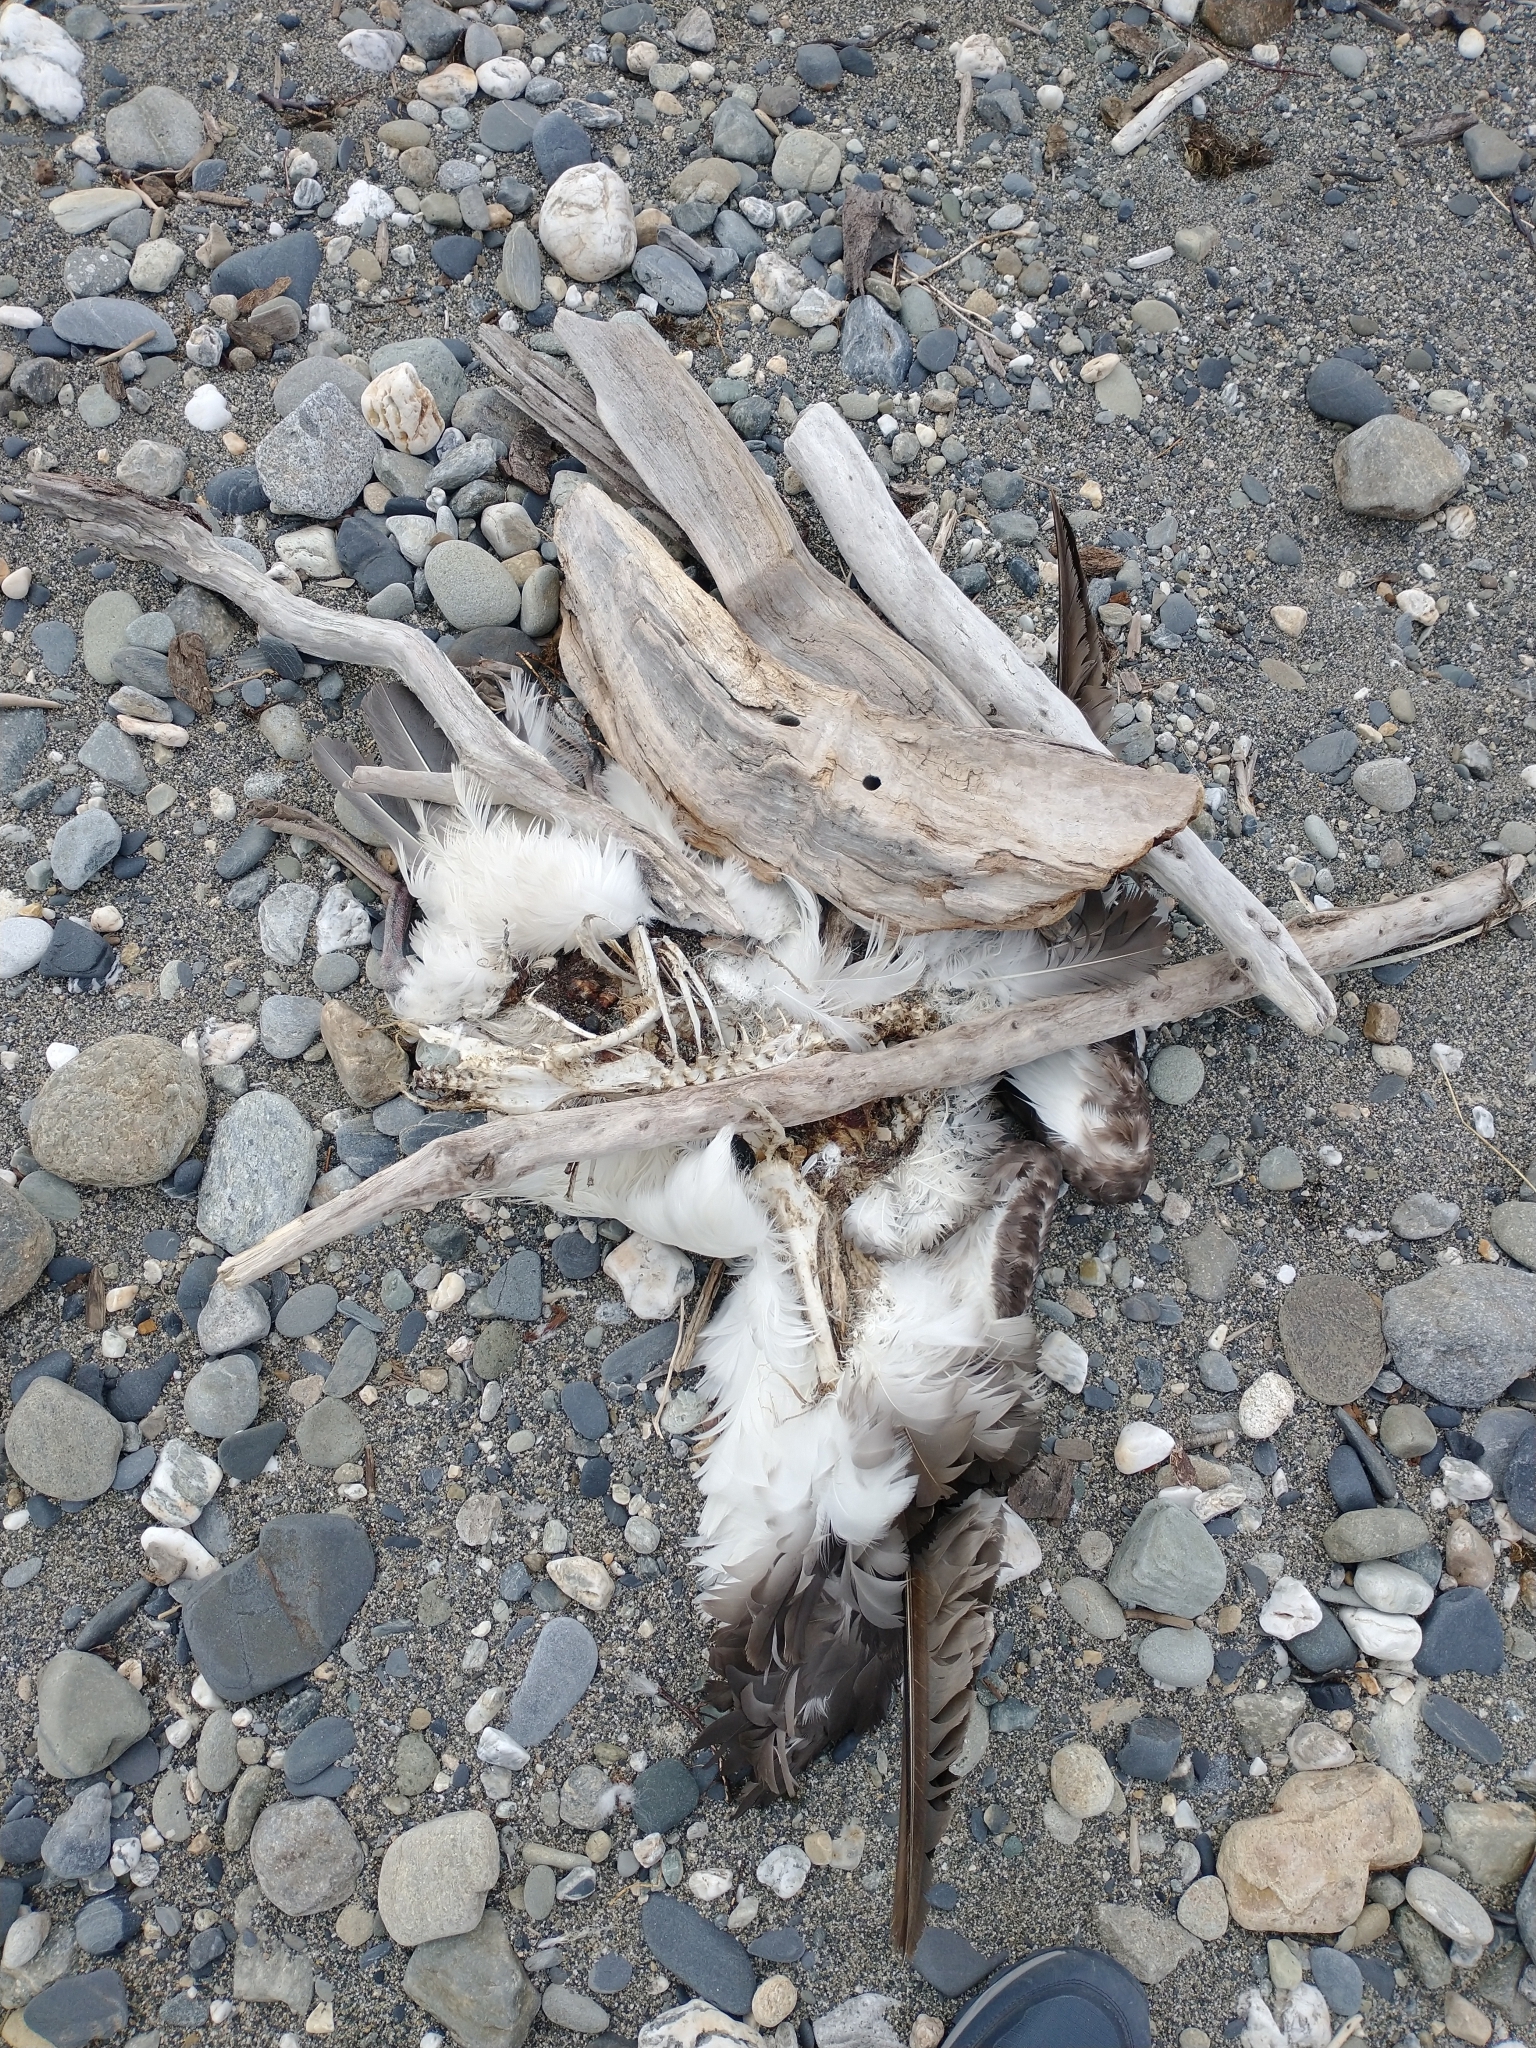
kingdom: Animalia
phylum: Chordata
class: Aves
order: Procellariiformes
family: Diomedeidae
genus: Thalassarche
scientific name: Thalassarche melanophris
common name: Black-browed albatross
